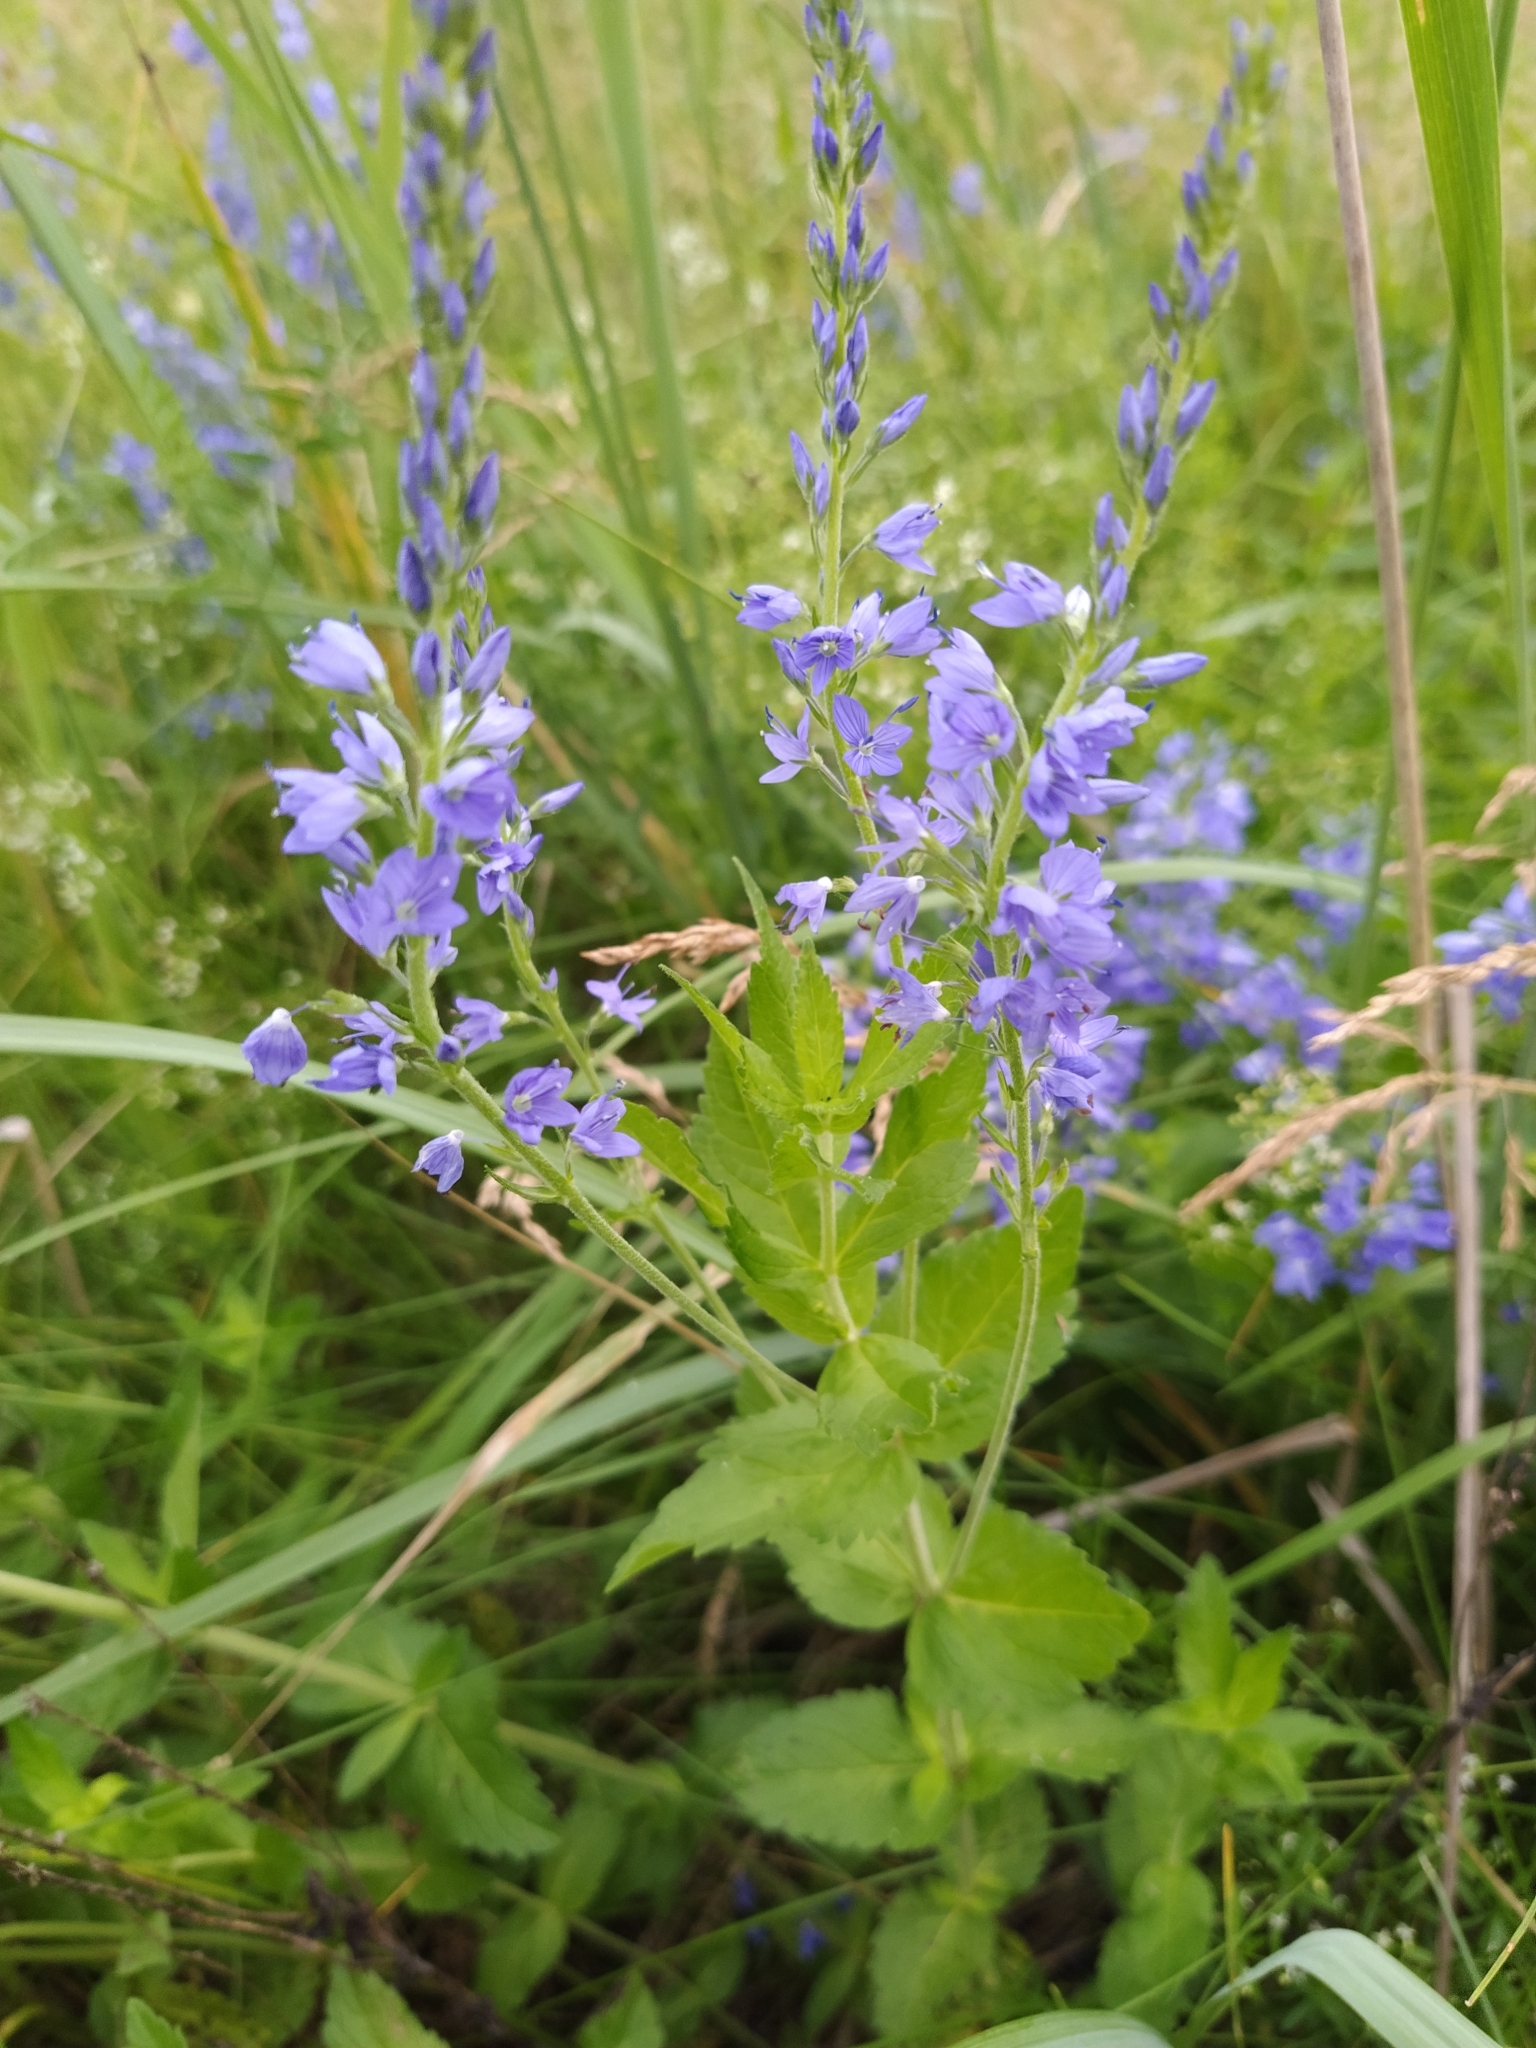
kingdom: Plantae
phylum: Tracheophyta
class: Magnoliopsida
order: Lamiales
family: Plantaginaceae
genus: Veronica
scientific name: Veronica teucrium
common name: Large speedwell
